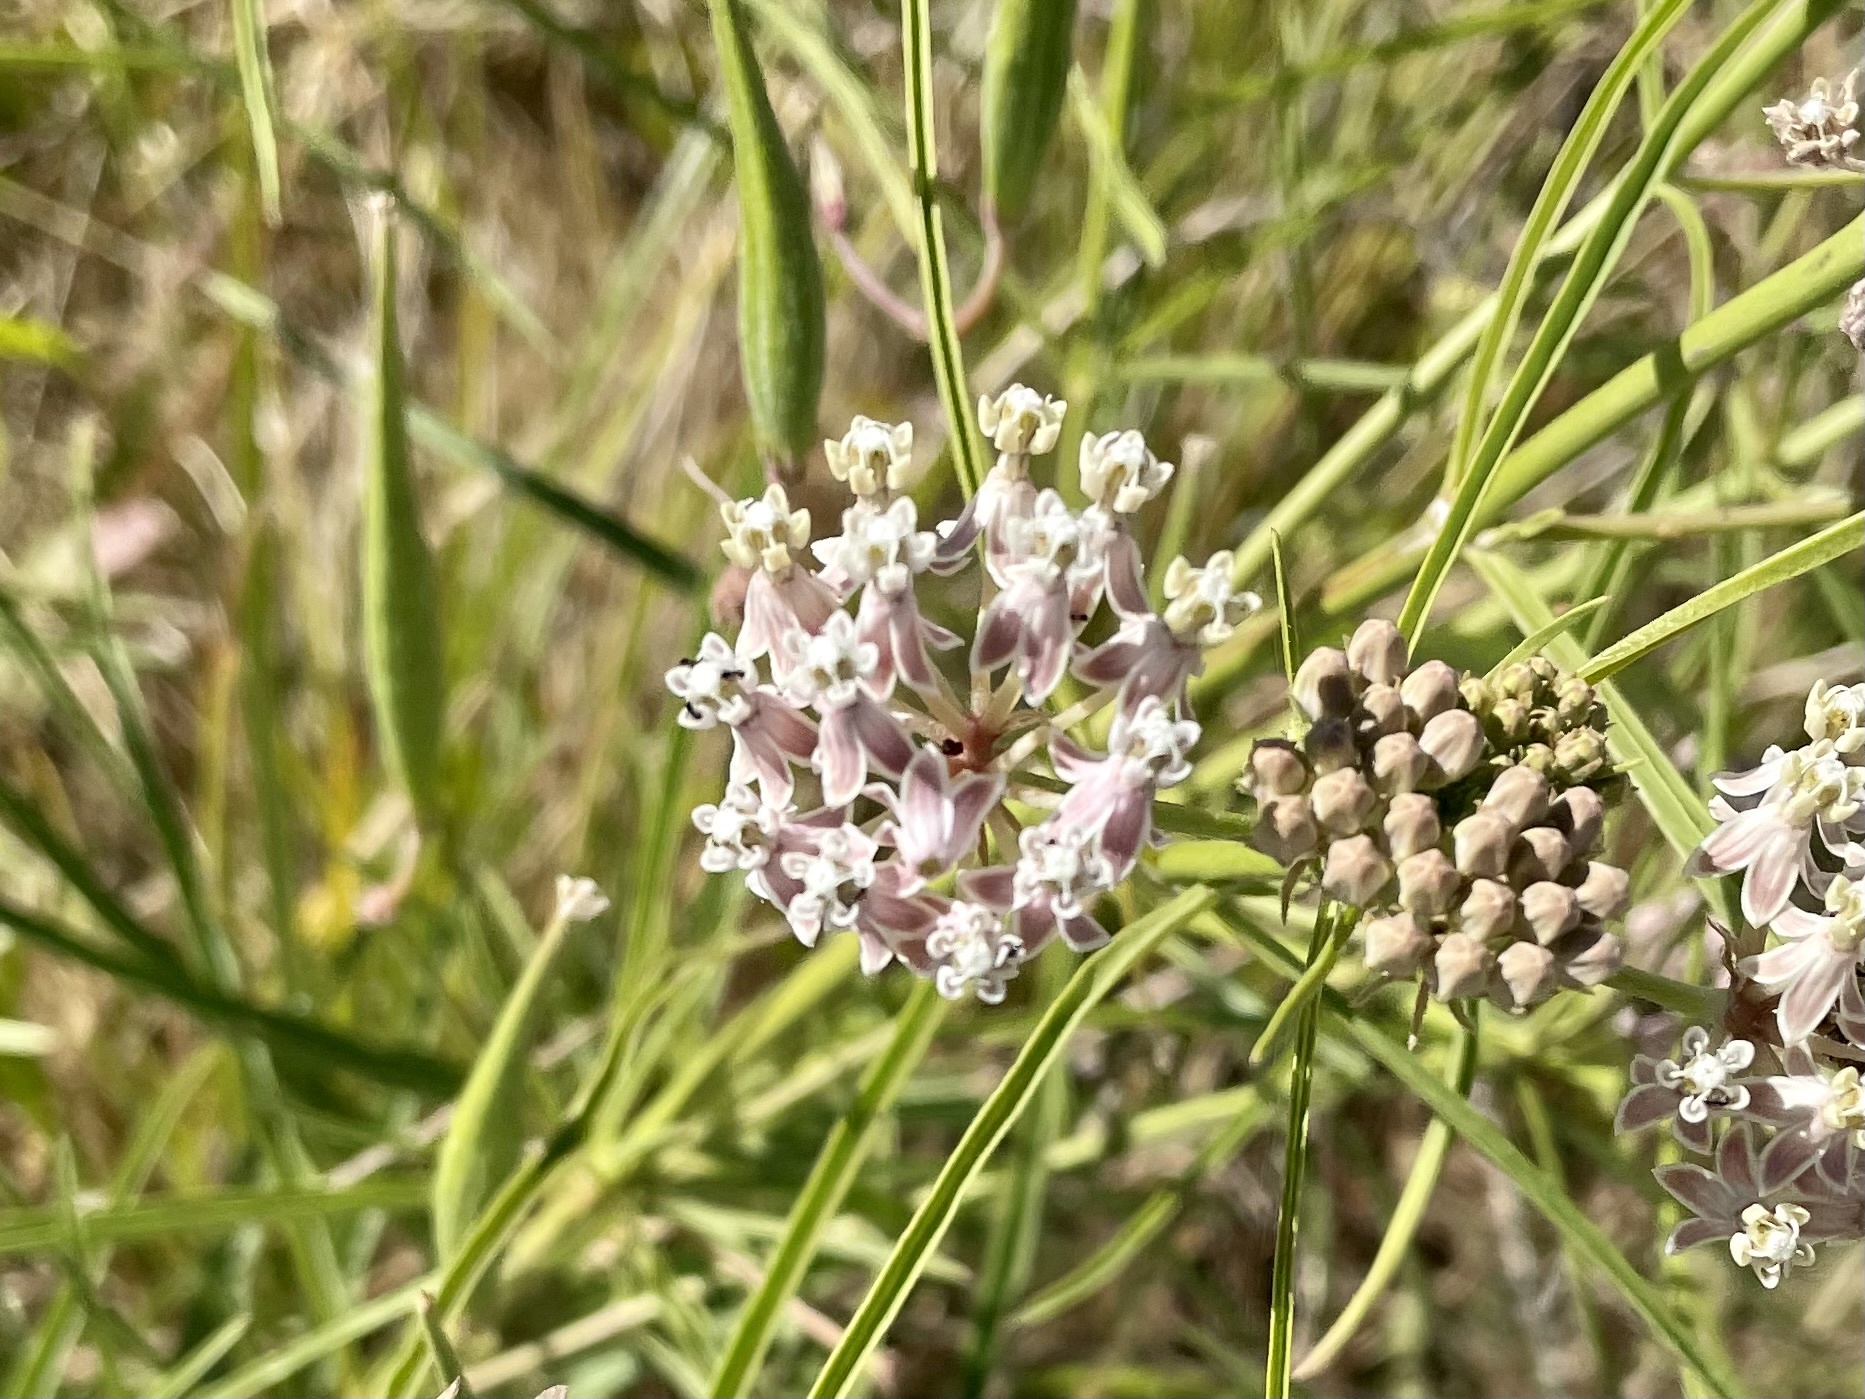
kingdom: Plantae
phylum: Tracheophyta
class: Magnoliopsida
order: Gentianales
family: Apocynaceae
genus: Asclepias
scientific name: Asclepias fascicularis
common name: Mexican milkweed
